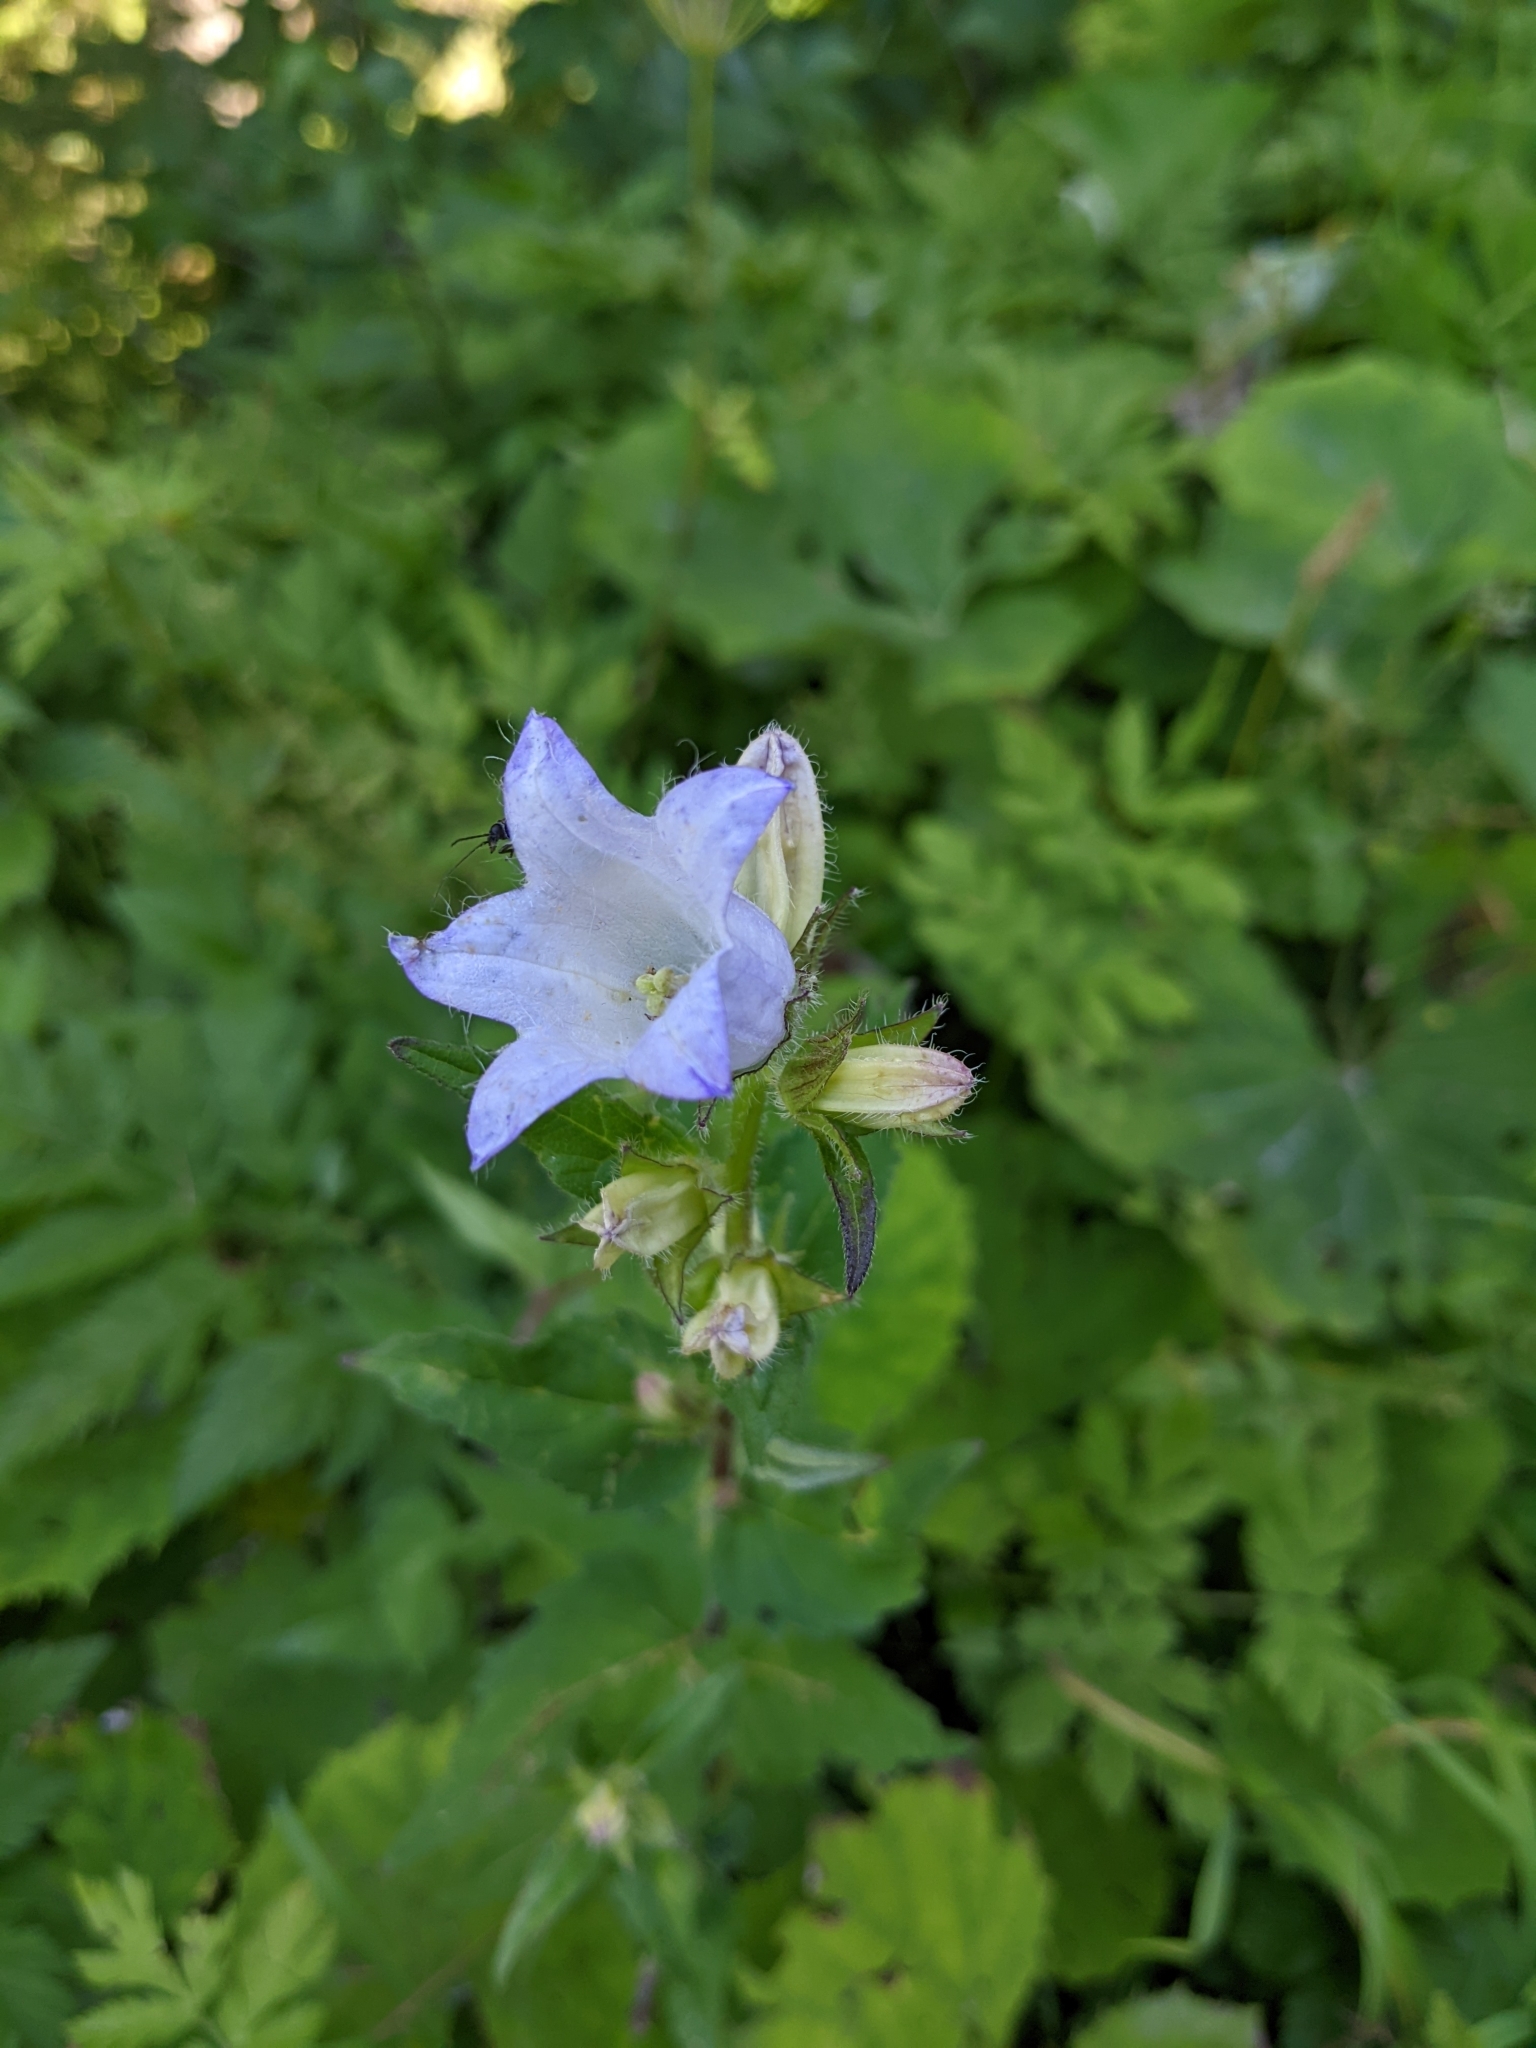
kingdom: Plantae
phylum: Tracheophyta
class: Magnoliopsida
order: Asterales
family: Campanulaceae
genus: Campanula
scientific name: Campanula trachelium
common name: Nettle-leaved bellflower
